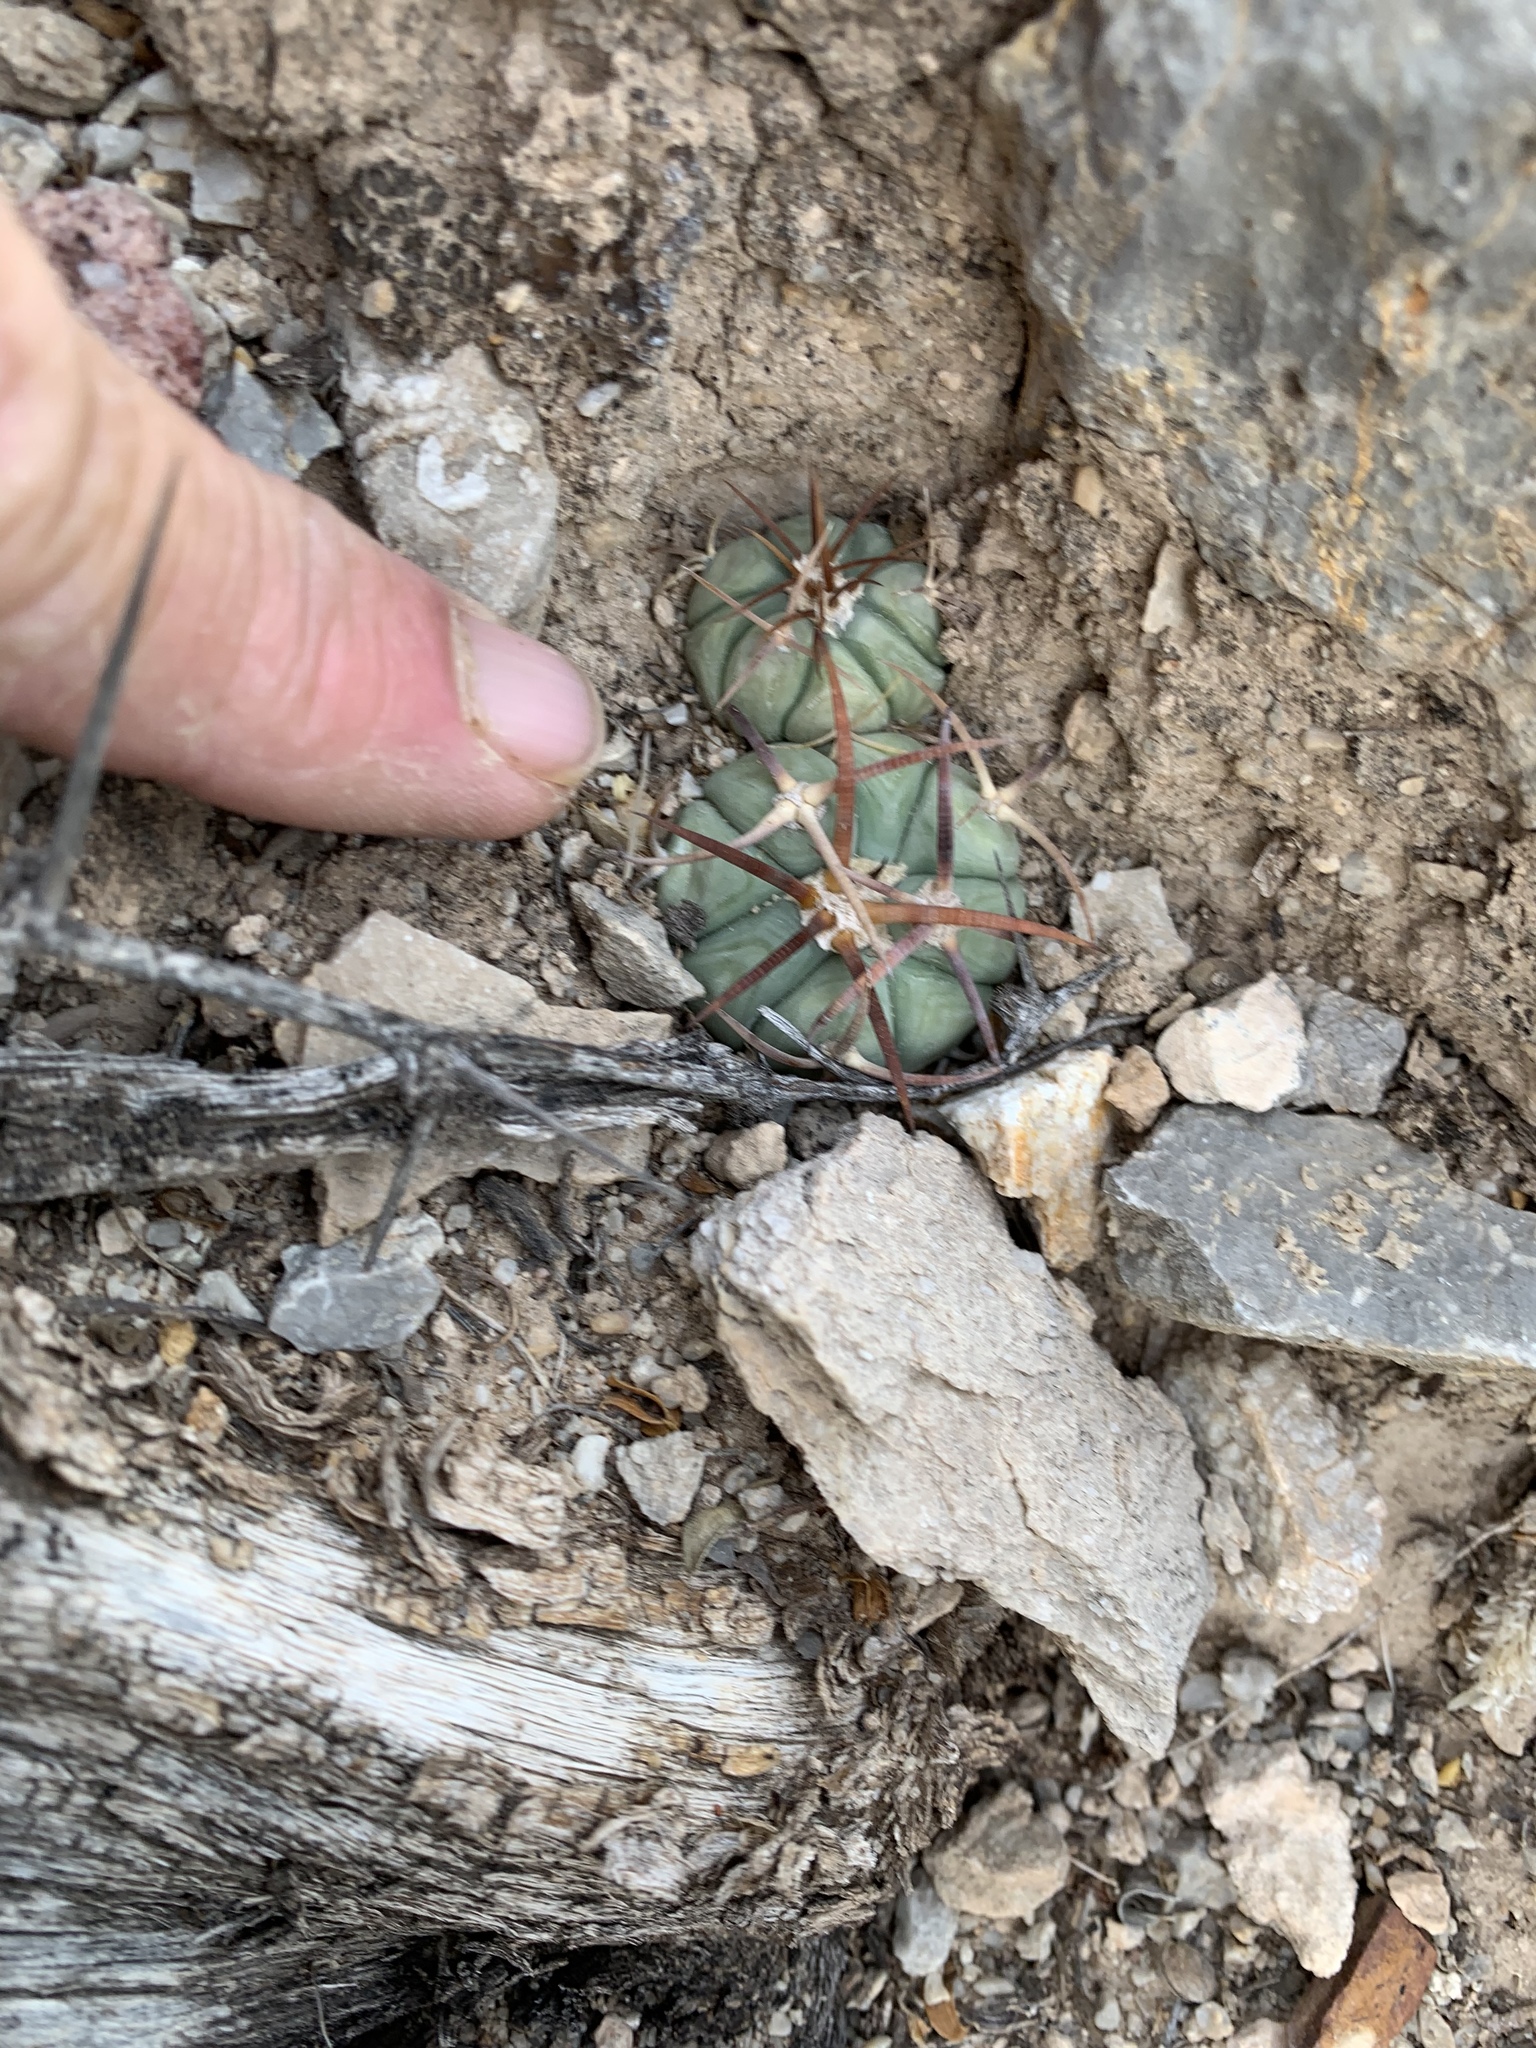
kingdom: Plantae
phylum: Tracheophyta
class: Magnoliopsida
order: Caryophyllales
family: Cactaceae
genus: Echinocactus
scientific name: Echinocactus horizonthalonius
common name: Devilshead
